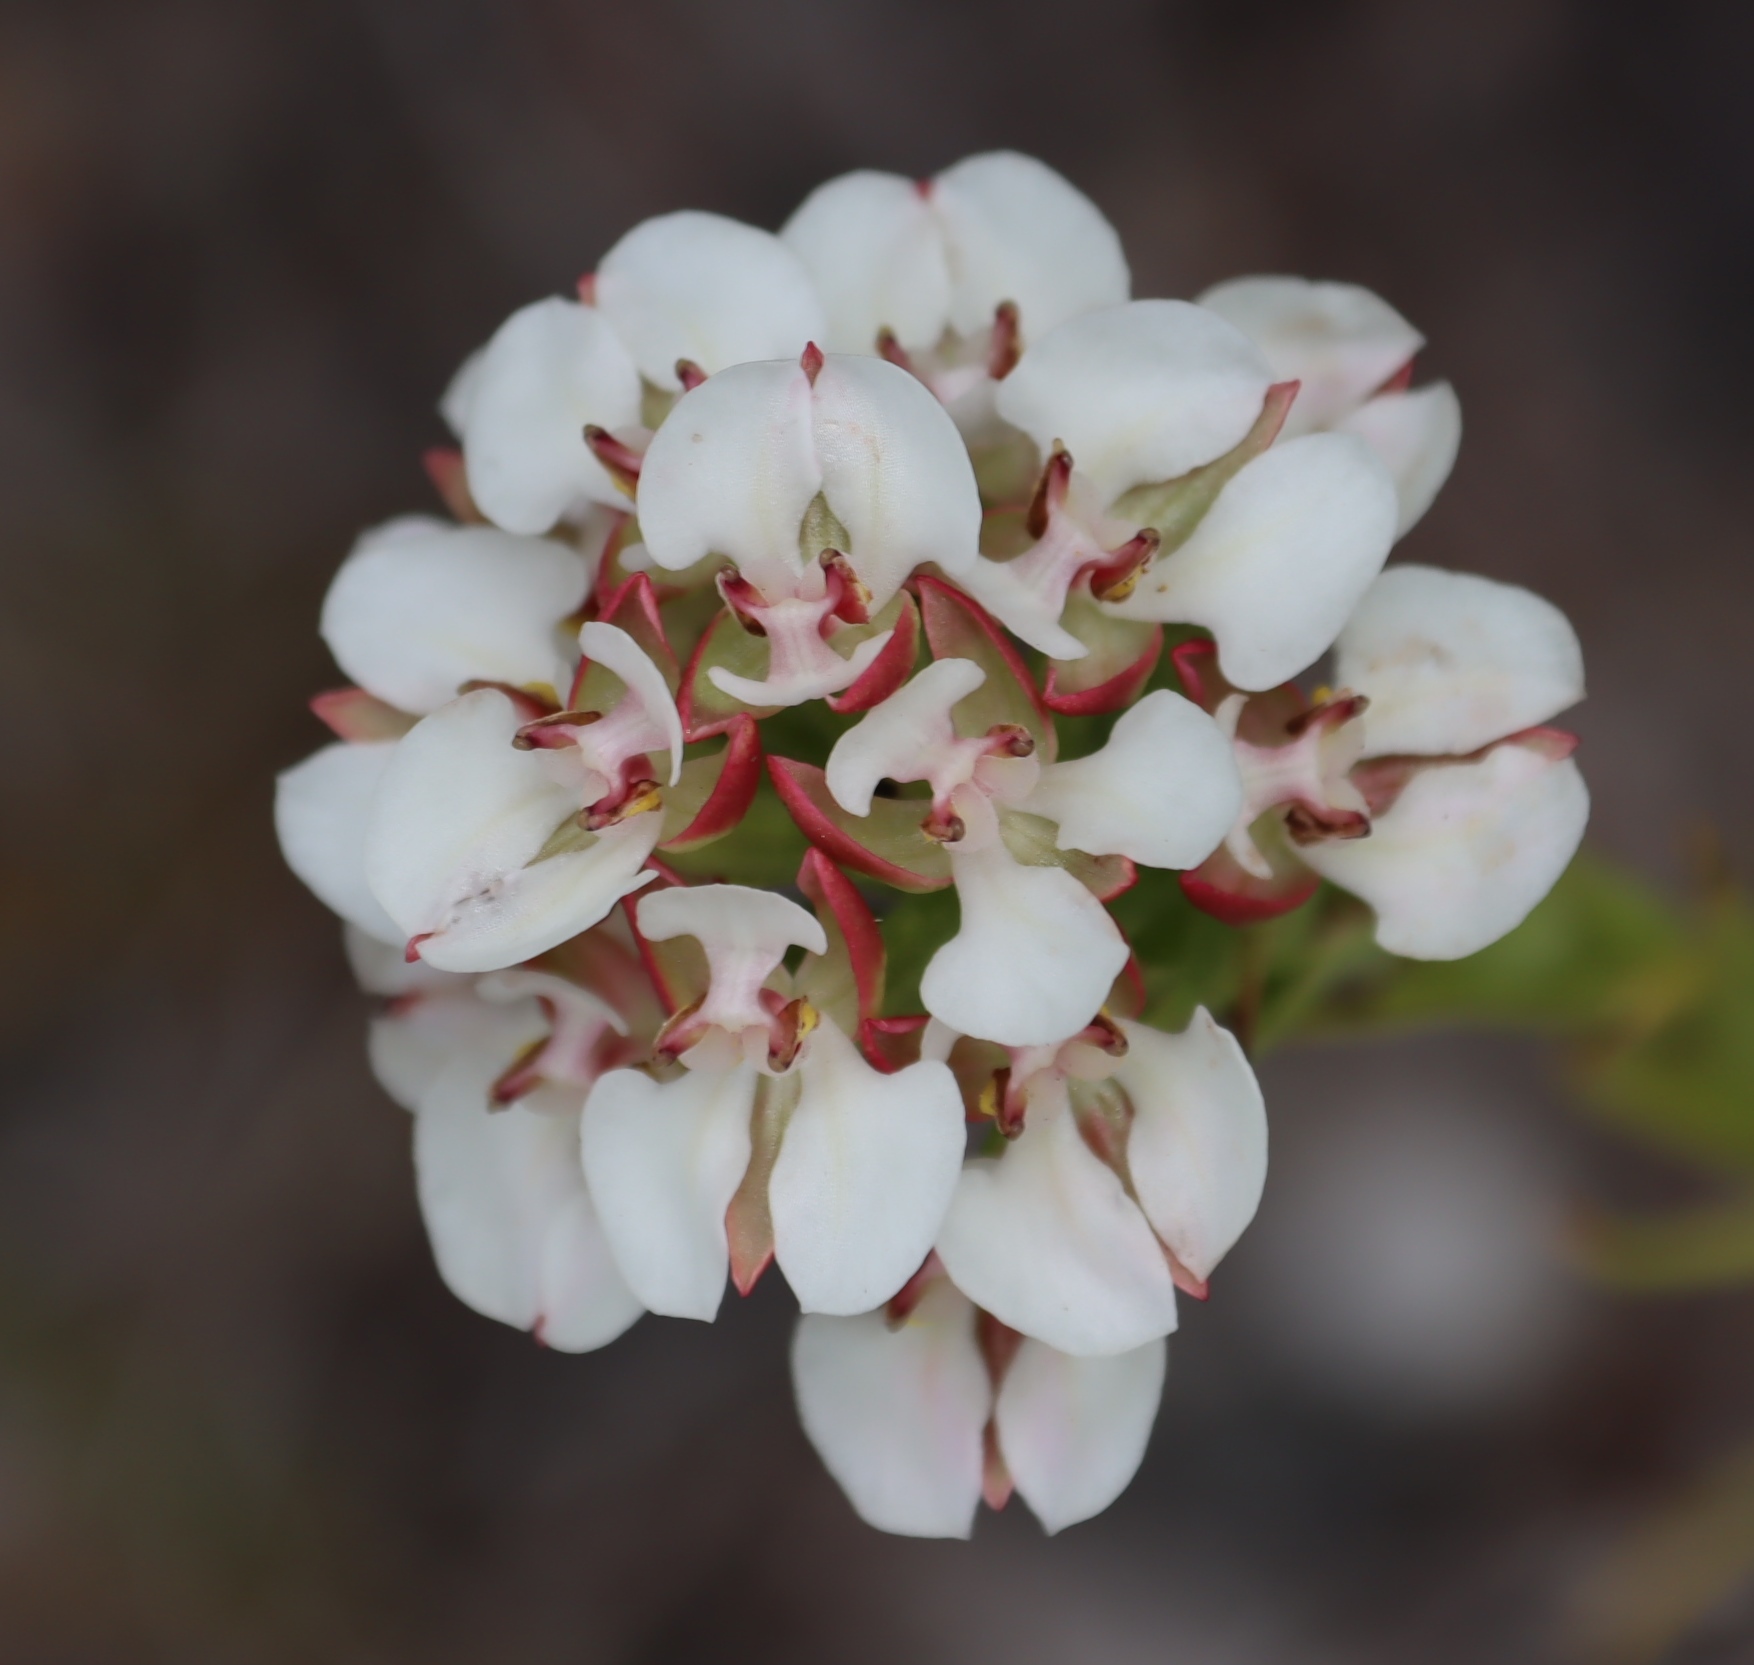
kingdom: Plantae
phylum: Tracheophyta
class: Liliopsida
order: Asparagales
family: Orchidaceae
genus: Ceratandra
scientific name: Ceratandra globosa
